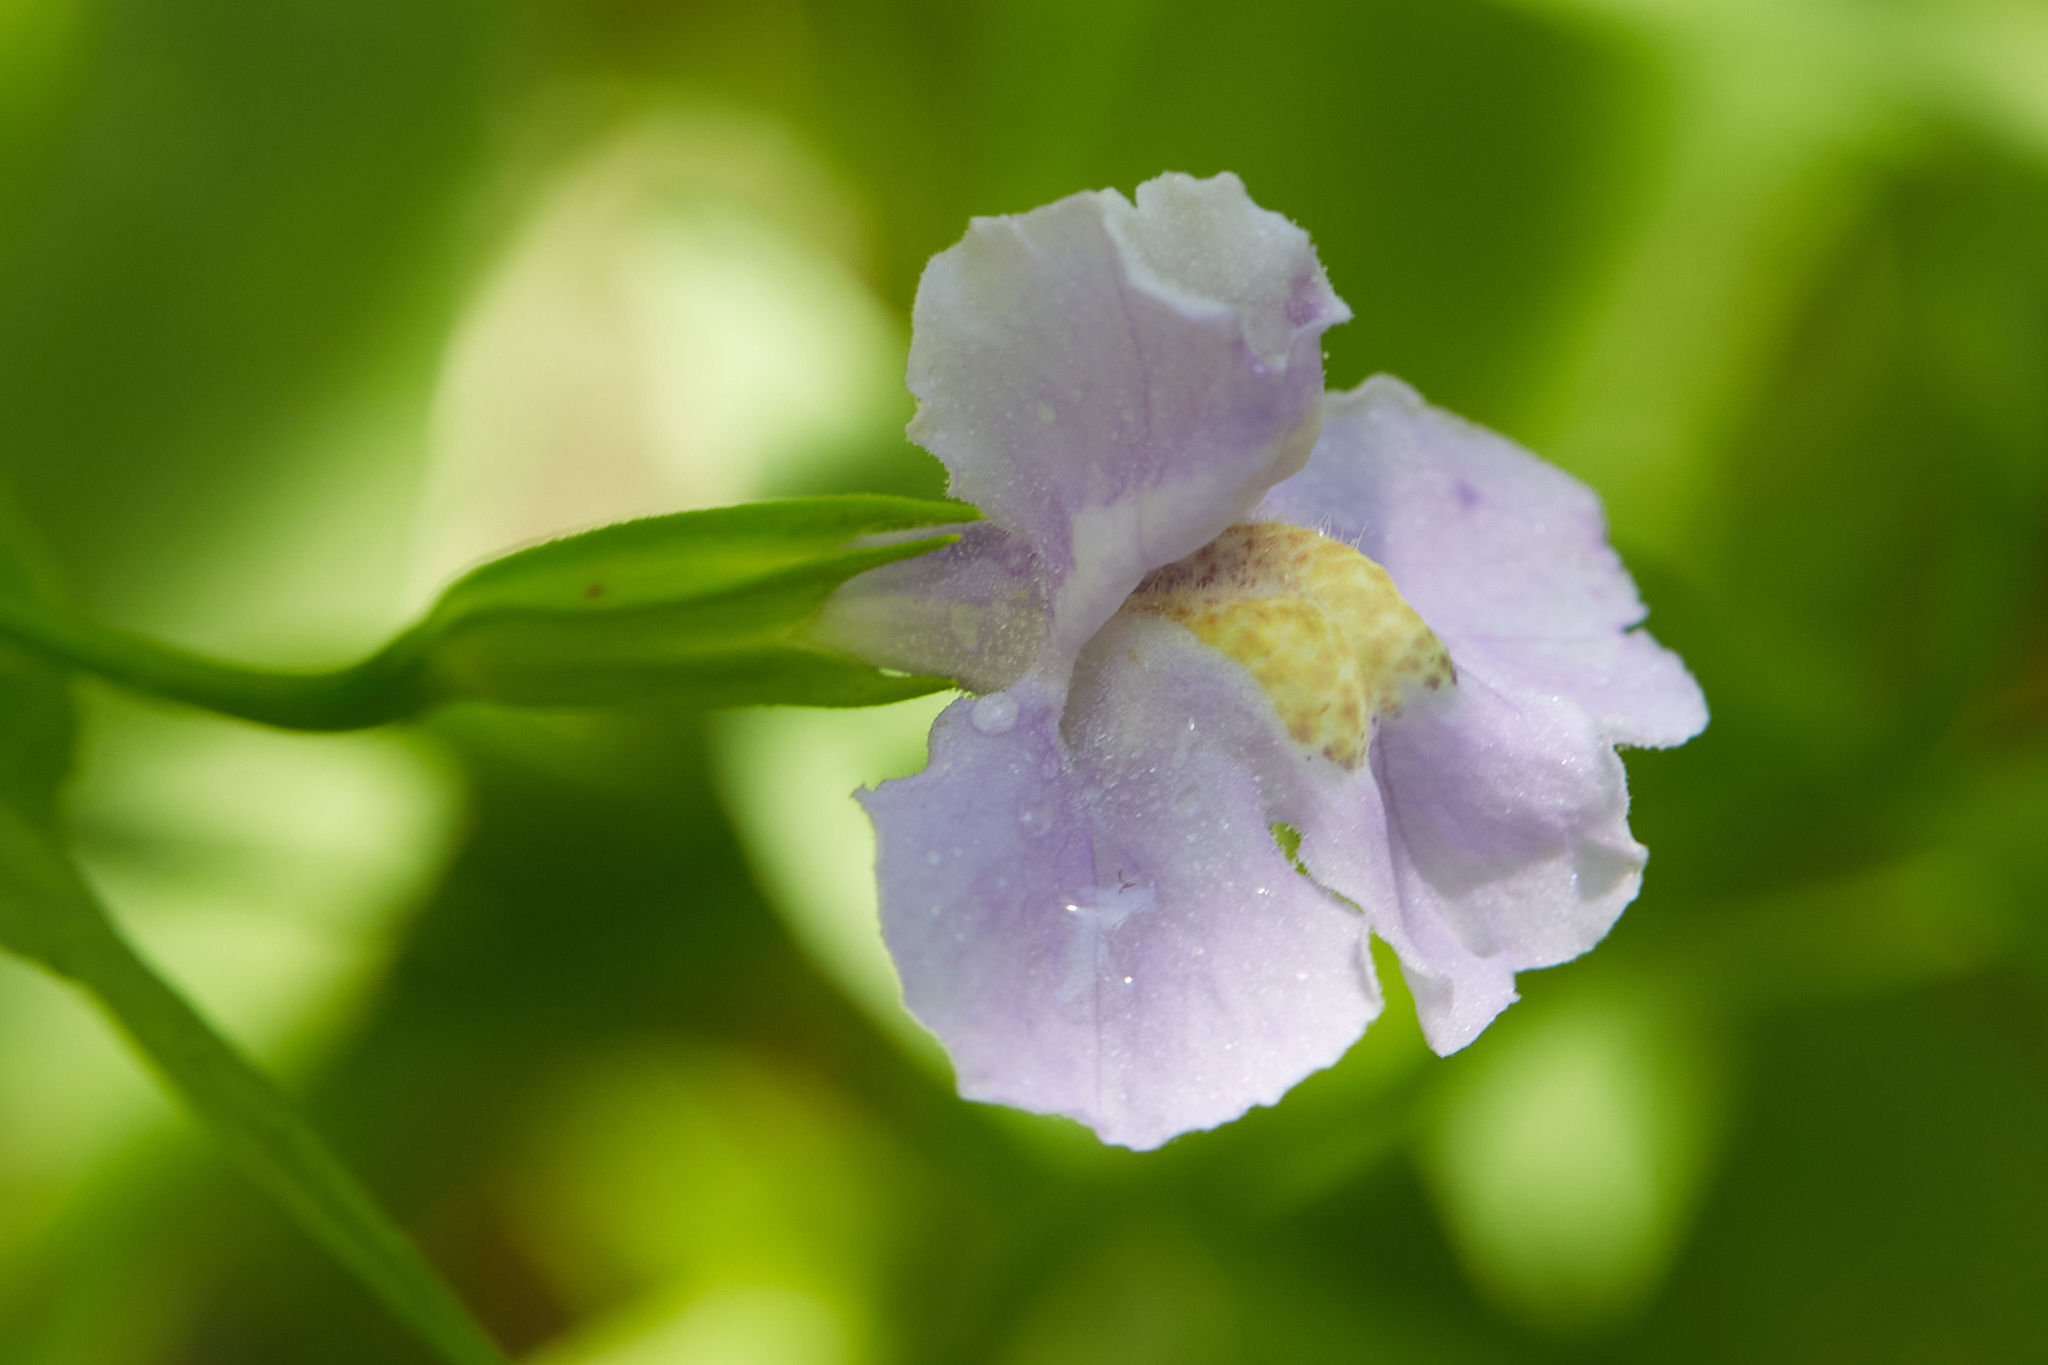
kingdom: Plantae
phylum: Tracheophyta
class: Magnoliopsida
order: Lamiales
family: Phrymaceae
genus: Mimulus
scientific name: Mimulus ringens
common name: Allegheny monkeyflower
